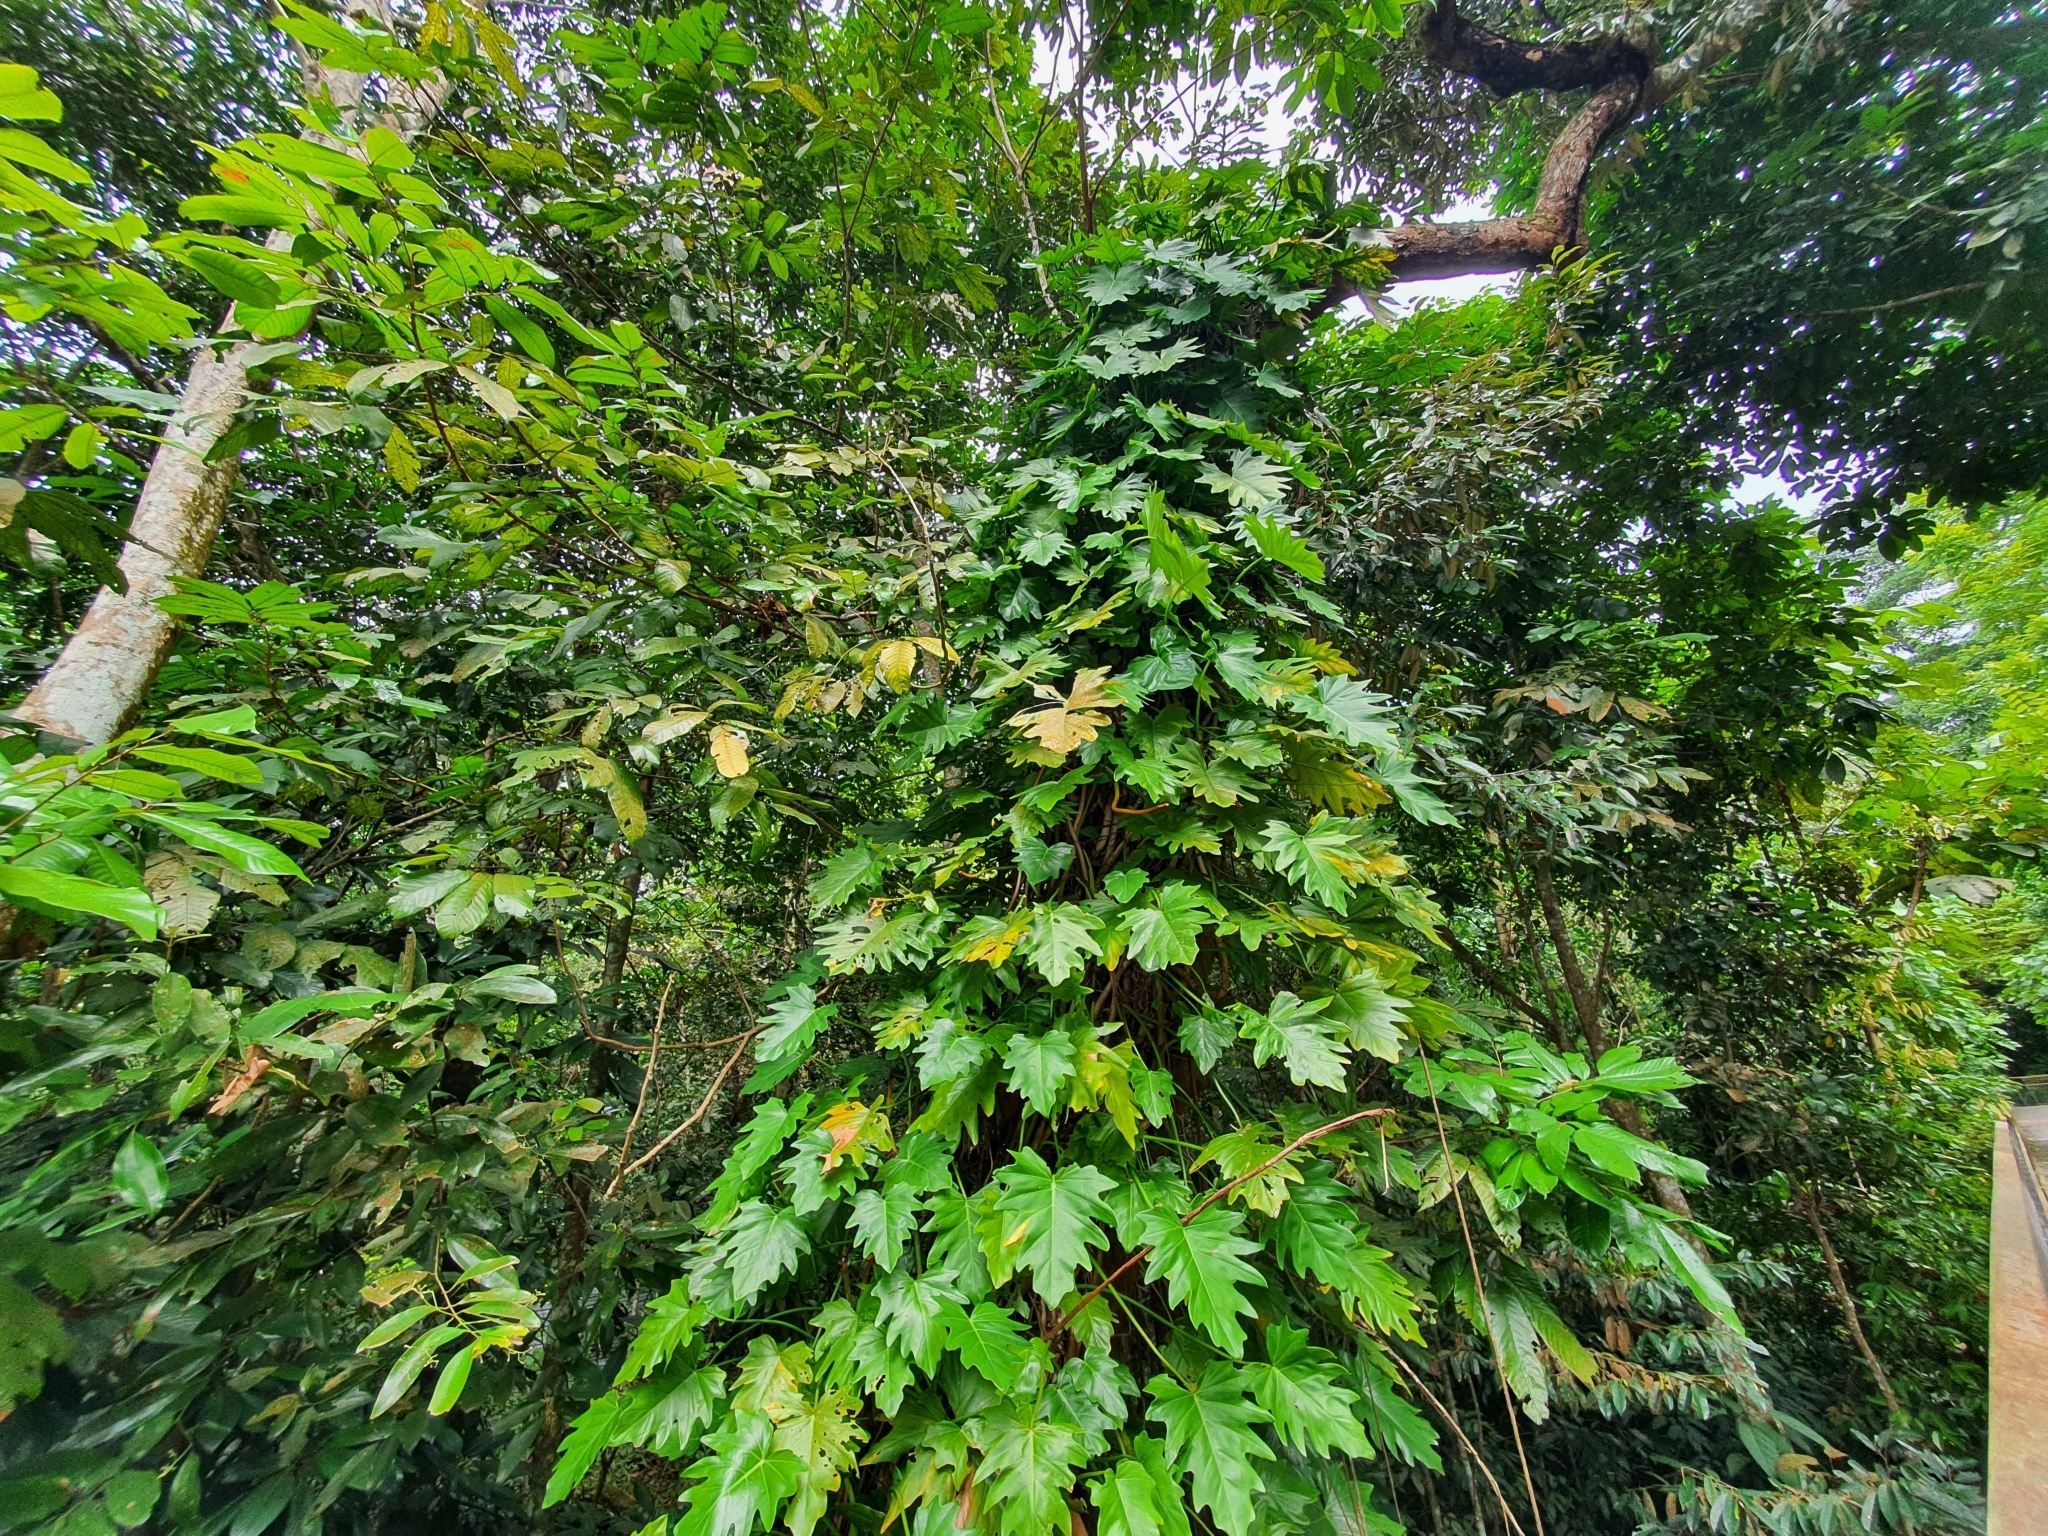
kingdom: Plantae
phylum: Tracheophyta
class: Liliopsida
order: Alismatales
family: Araceae
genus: Philodendron
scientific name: Philodendron lacerum
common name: Philodendron
